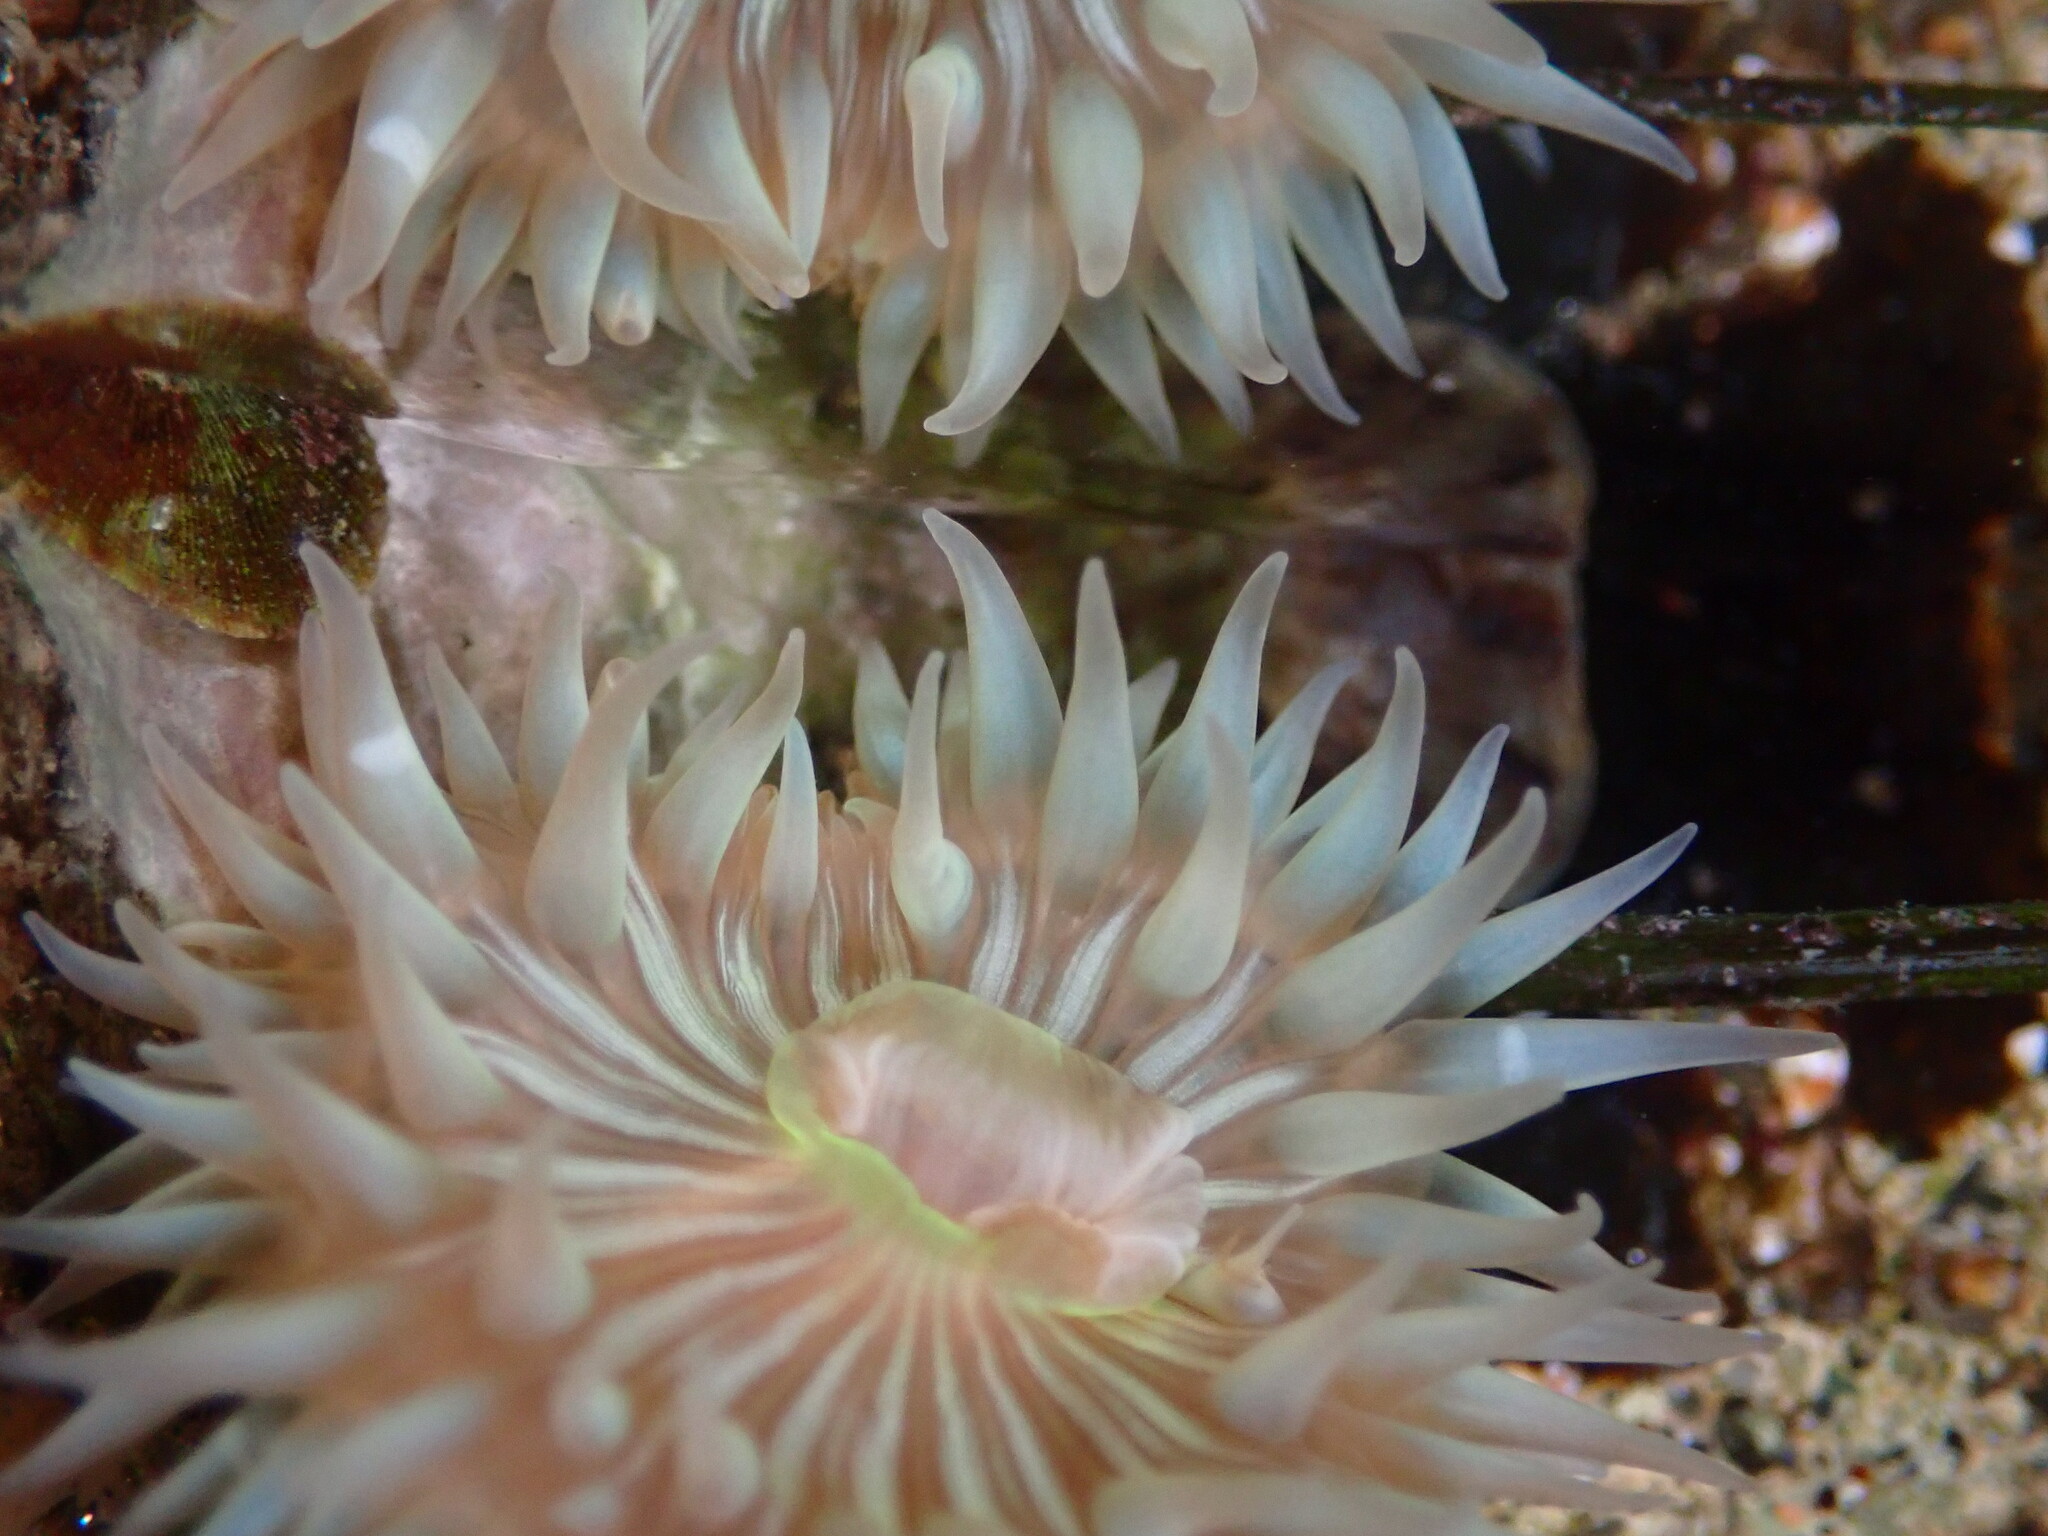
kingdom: Animalia
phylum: Cnidaria
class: Anthozoa
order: Actiniaria
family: Actiniidae
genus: Anthopleura
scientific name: Anthopleura sola
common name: Sun anemone
